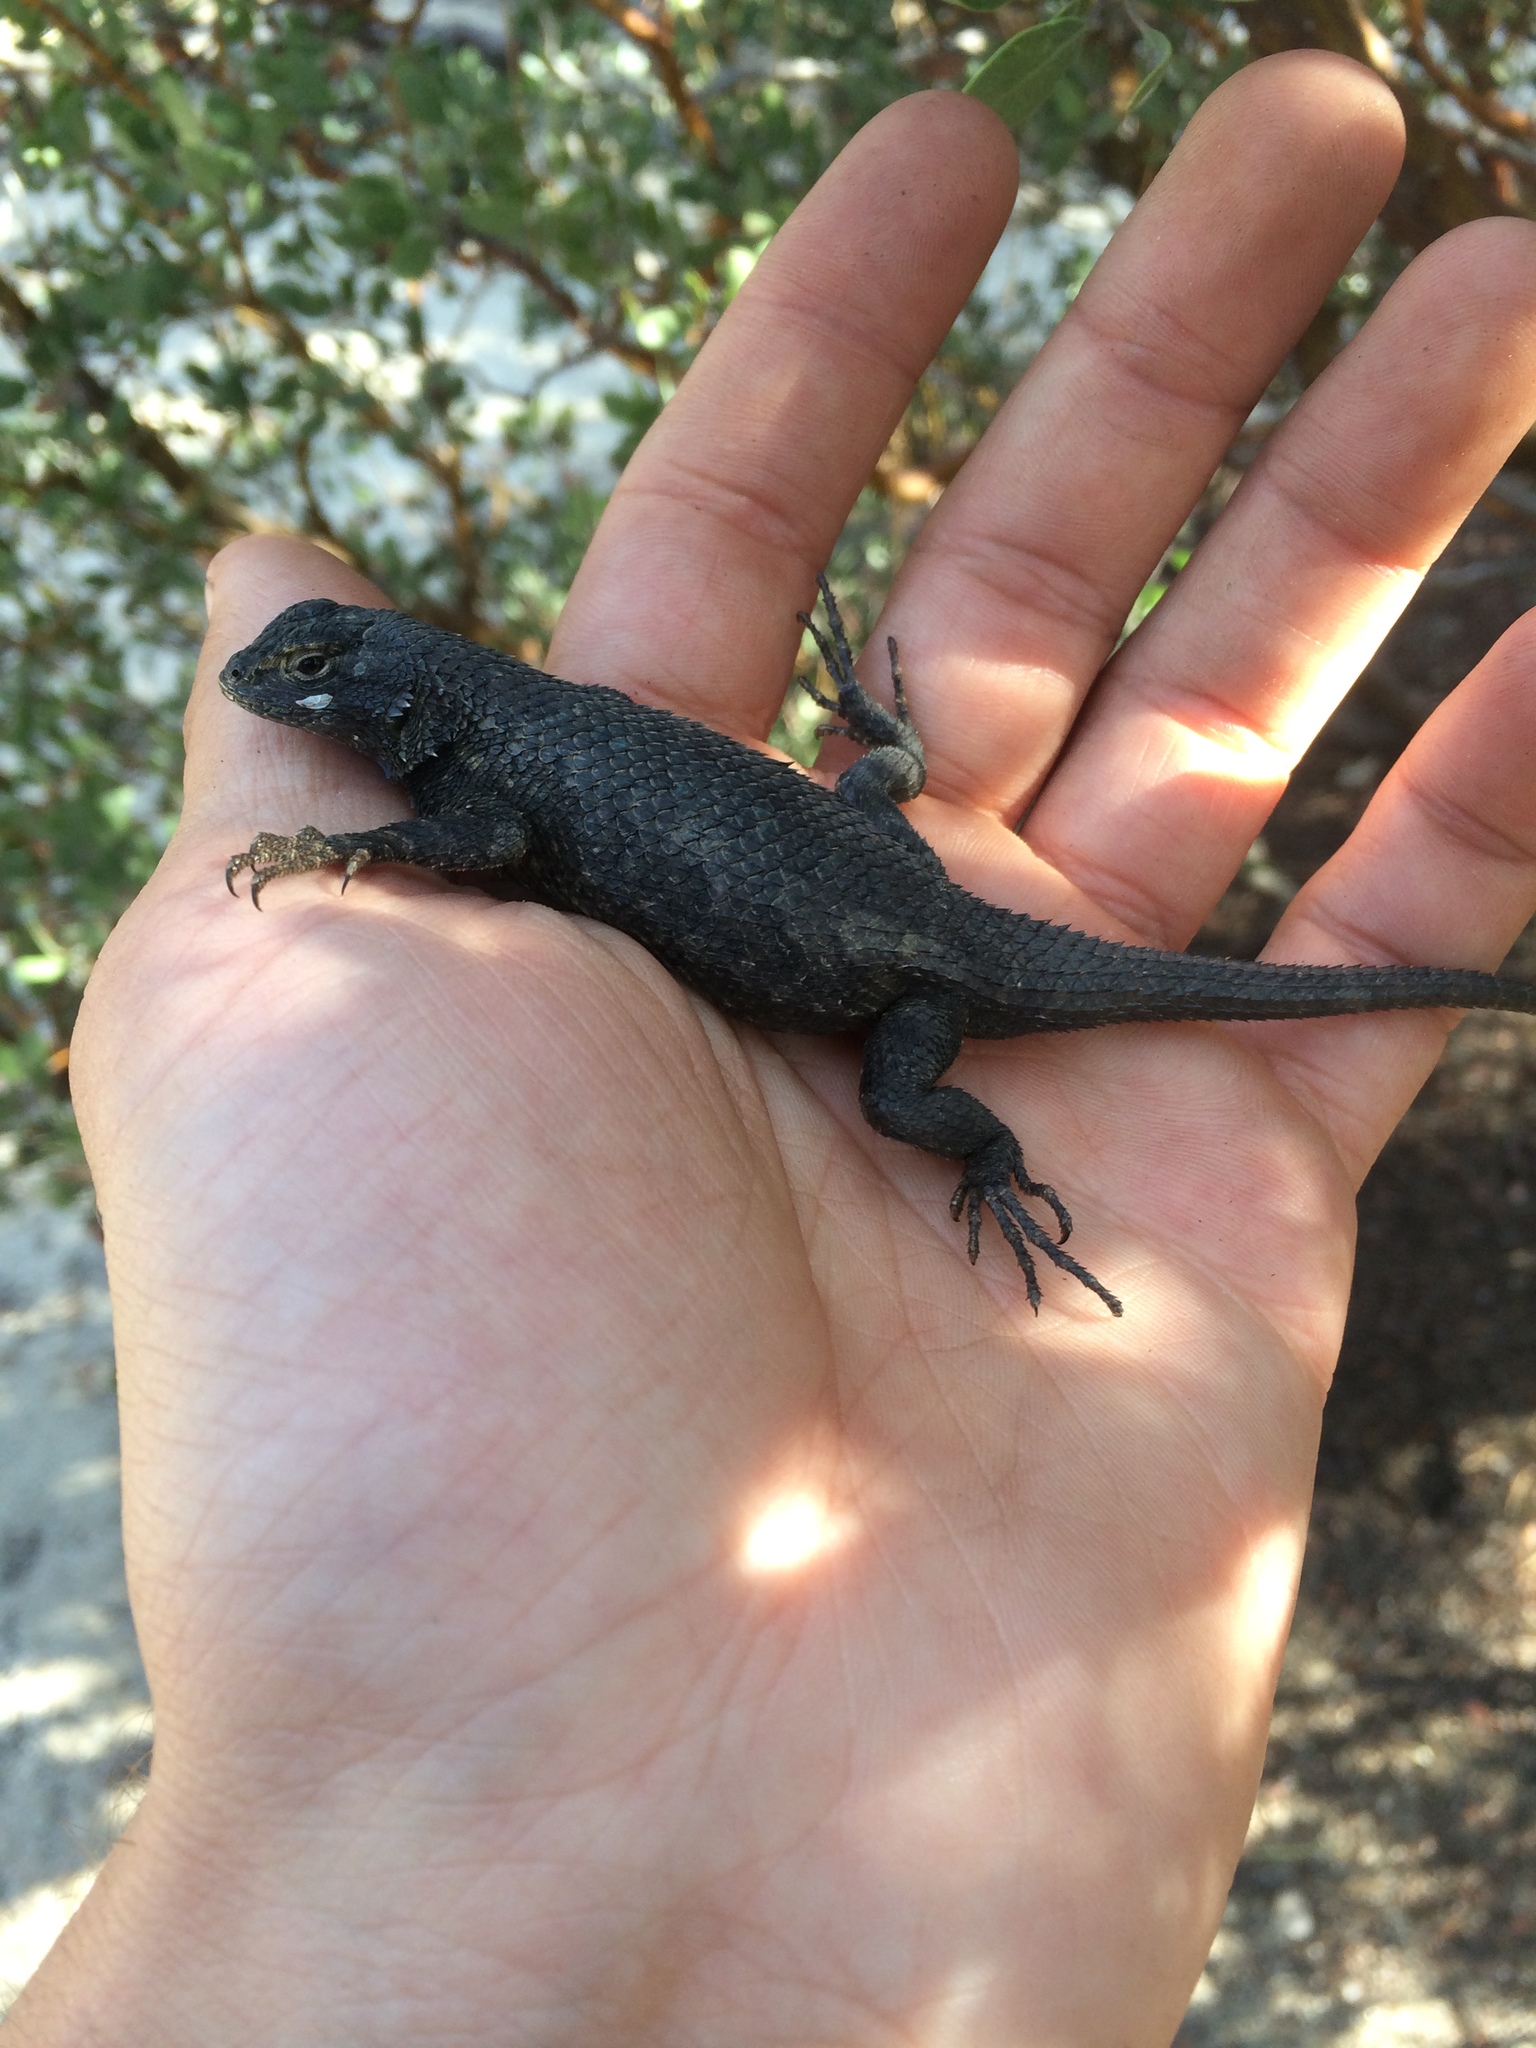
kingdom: Animalia
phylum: Chordata
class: Squamata
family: Phrynosomatidae
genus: Sceloporus
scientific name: Sceloporus occidentalis
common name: Western fence lizard
